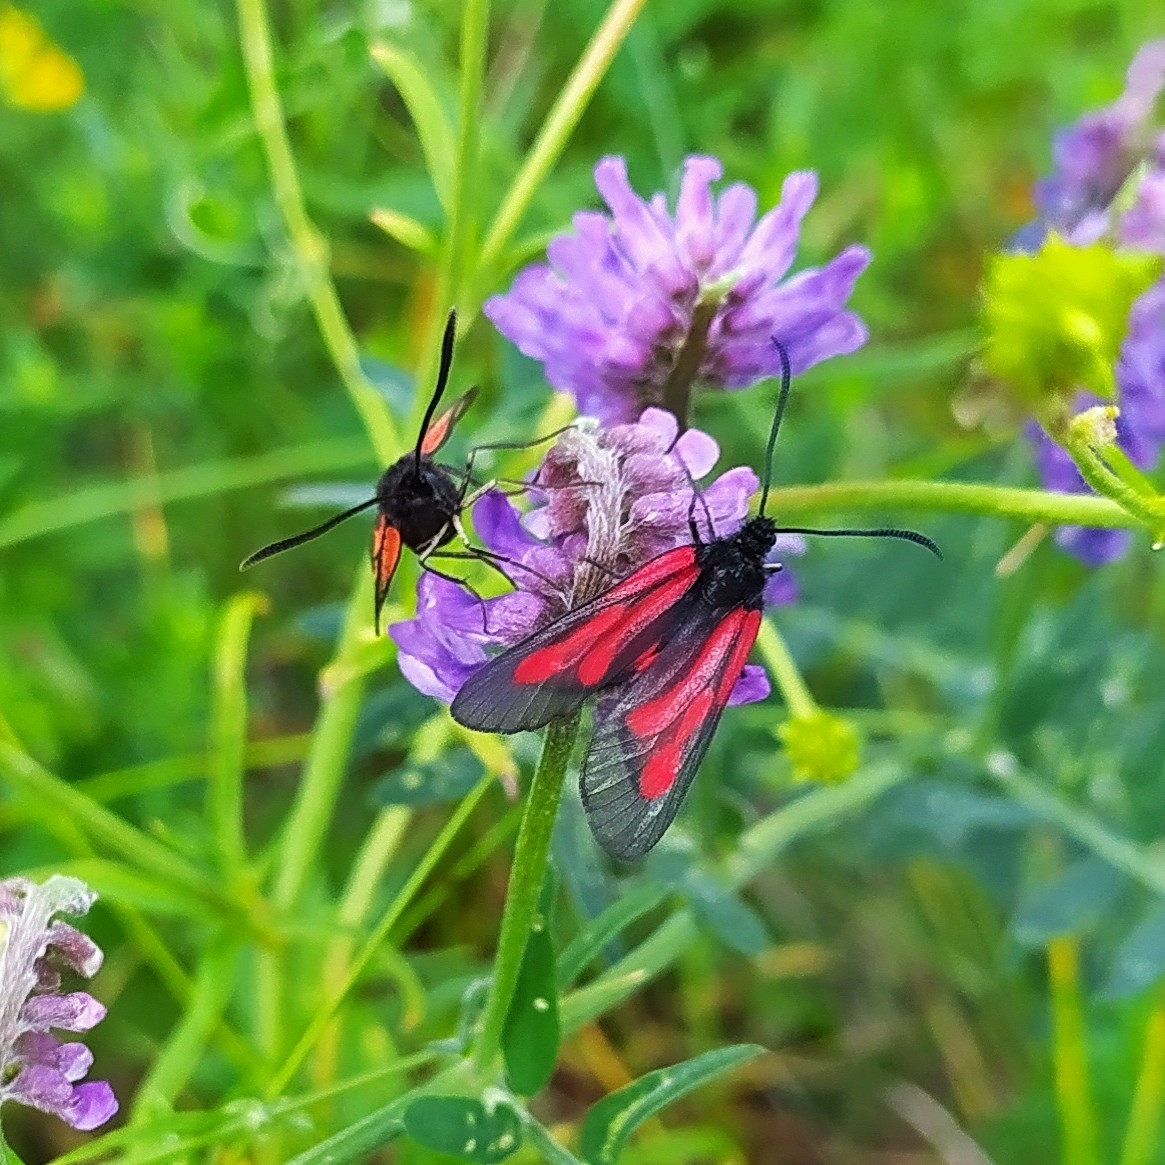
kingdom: Animalia
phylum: Arthropoda
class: Insecta
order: Lepidoptera
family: Zygaenidae
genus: Zygaena
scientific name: Zygaena osterodensis
